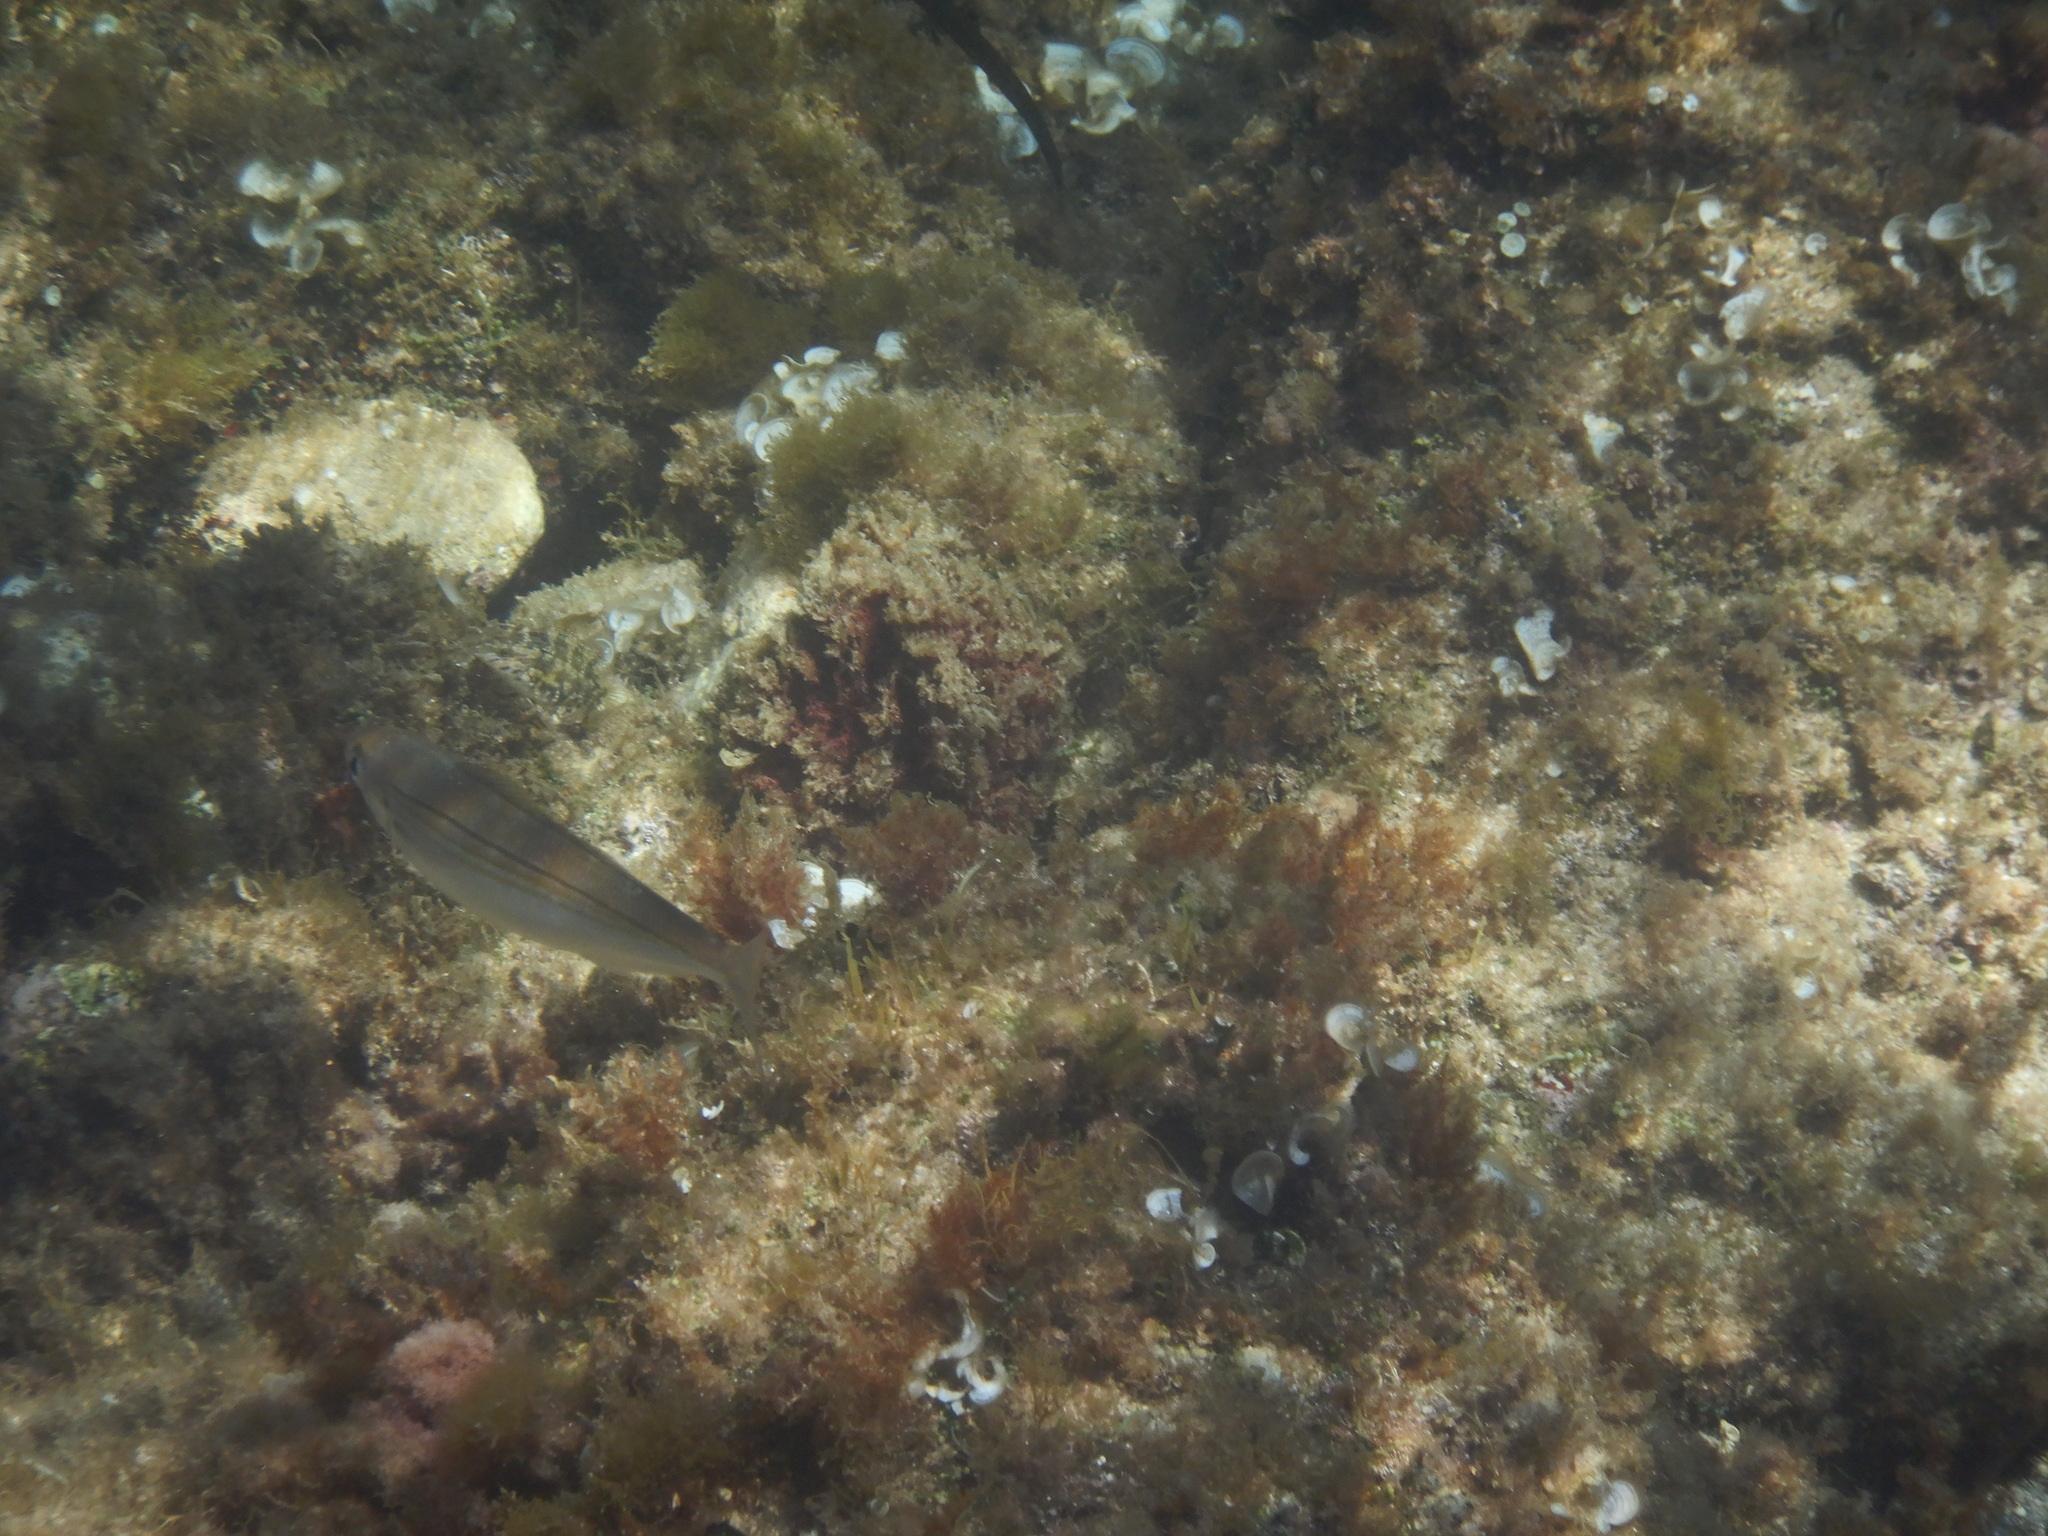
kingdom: Animalia
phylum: Chordata
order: Perciformes
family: Sparidae
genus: Boops
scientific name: Boops boops
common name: Bogue
